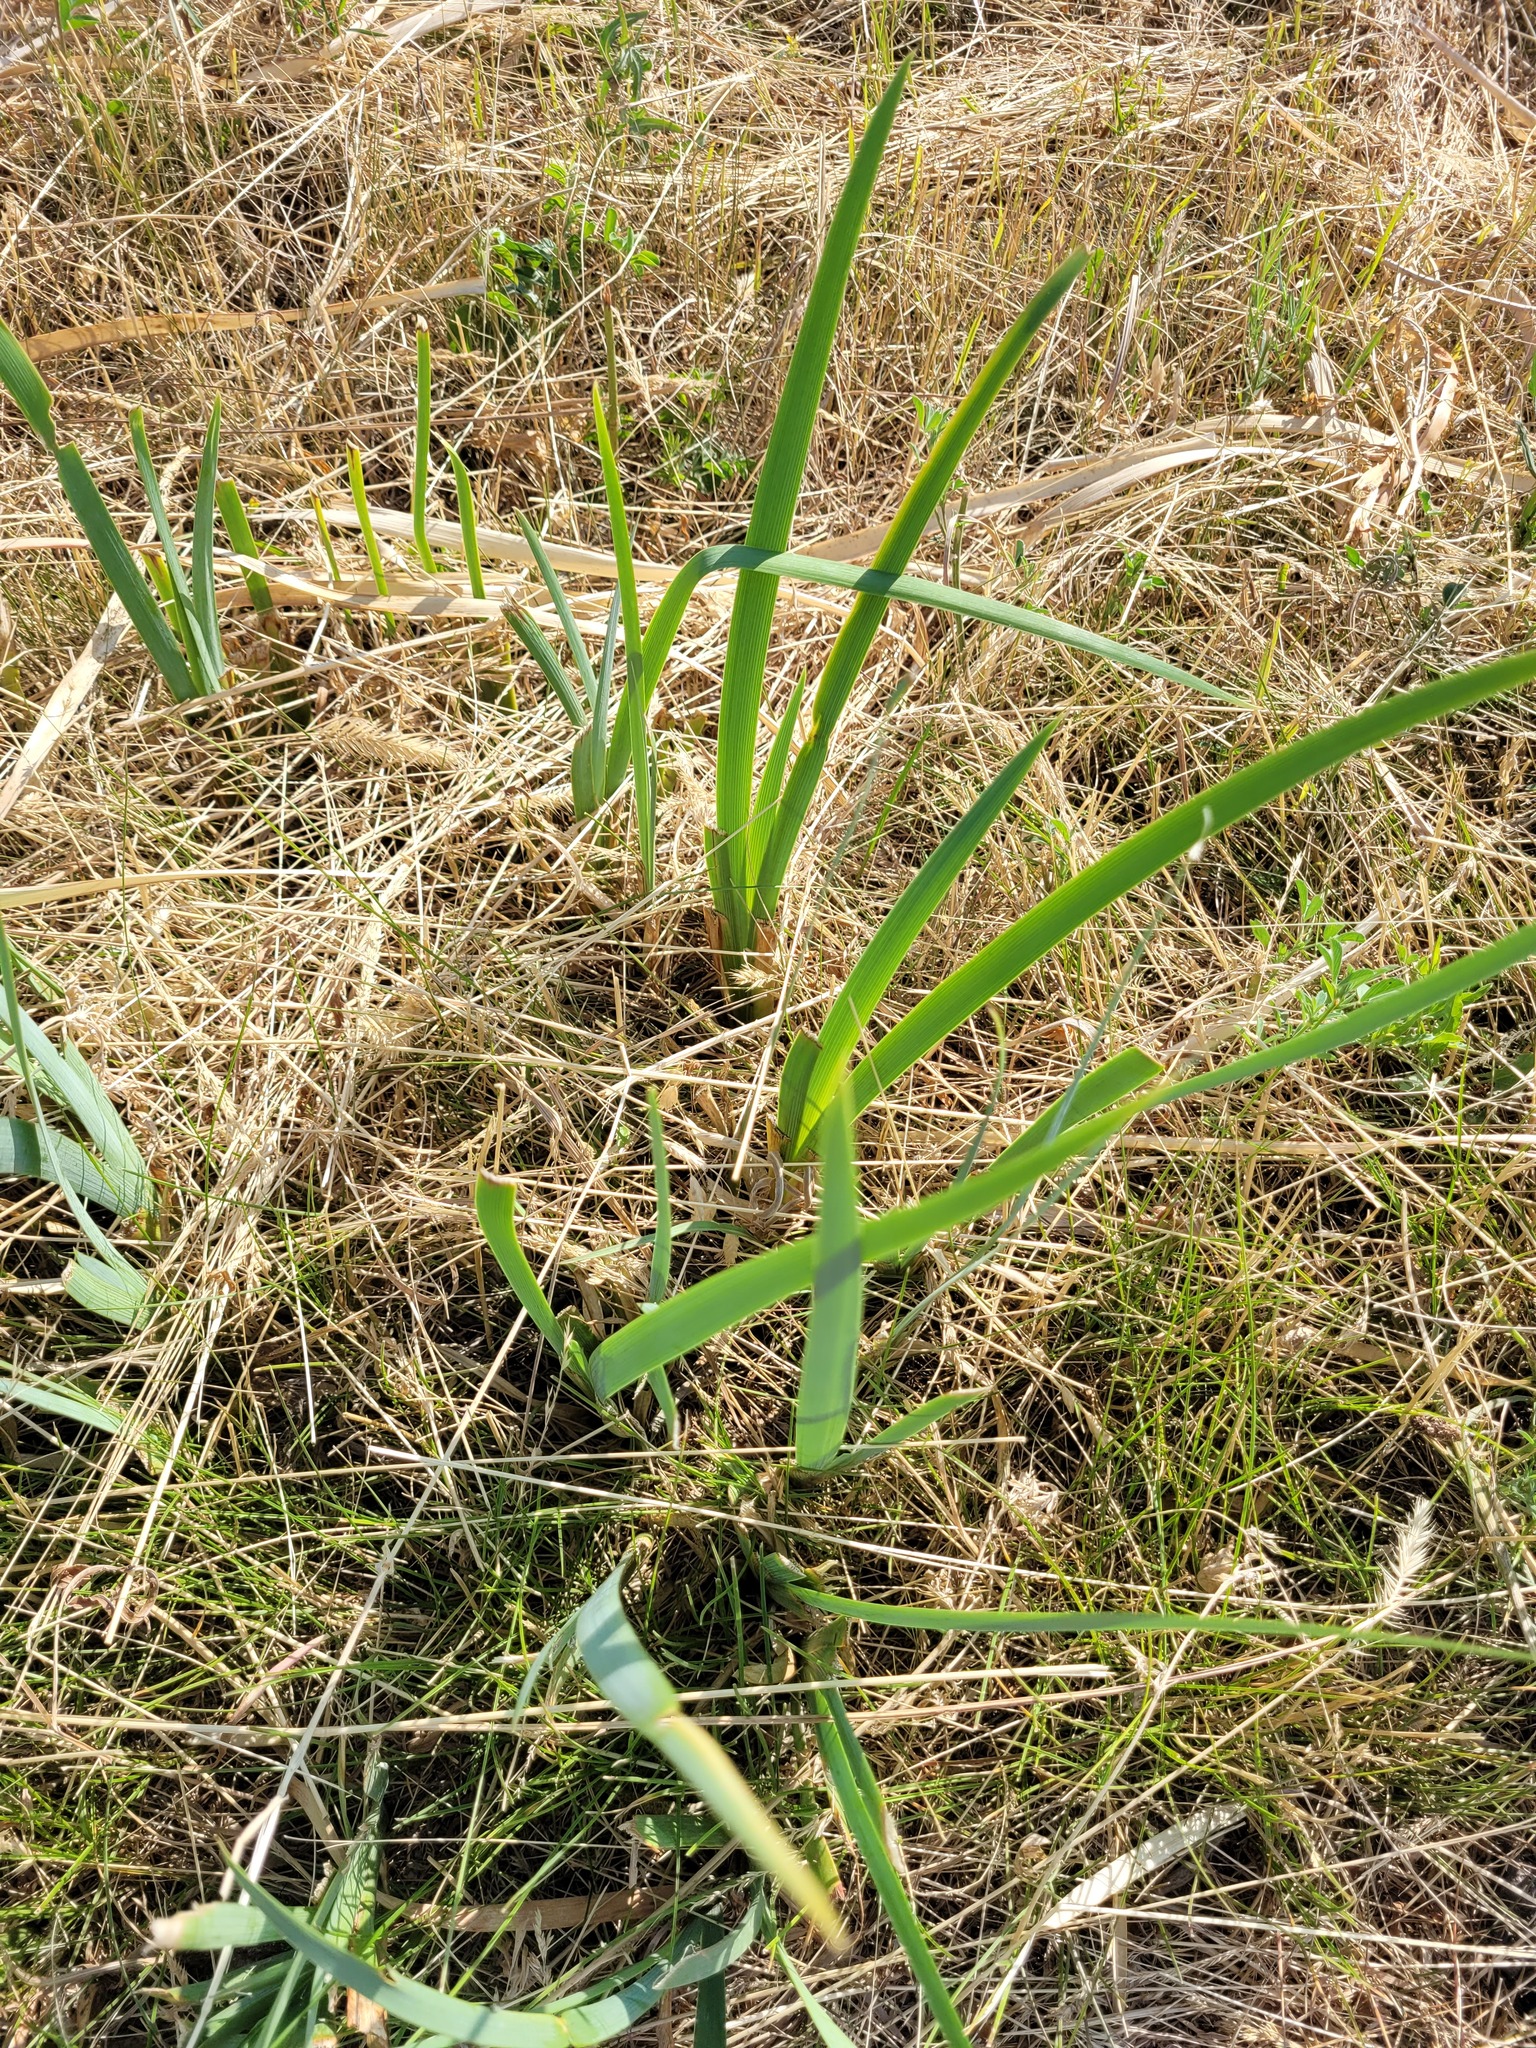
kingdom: Plantae
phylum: Tracheophyta
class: Liliopsida
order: Asparagales
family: Iridaceae
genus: Iris
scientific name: Iris halophila
